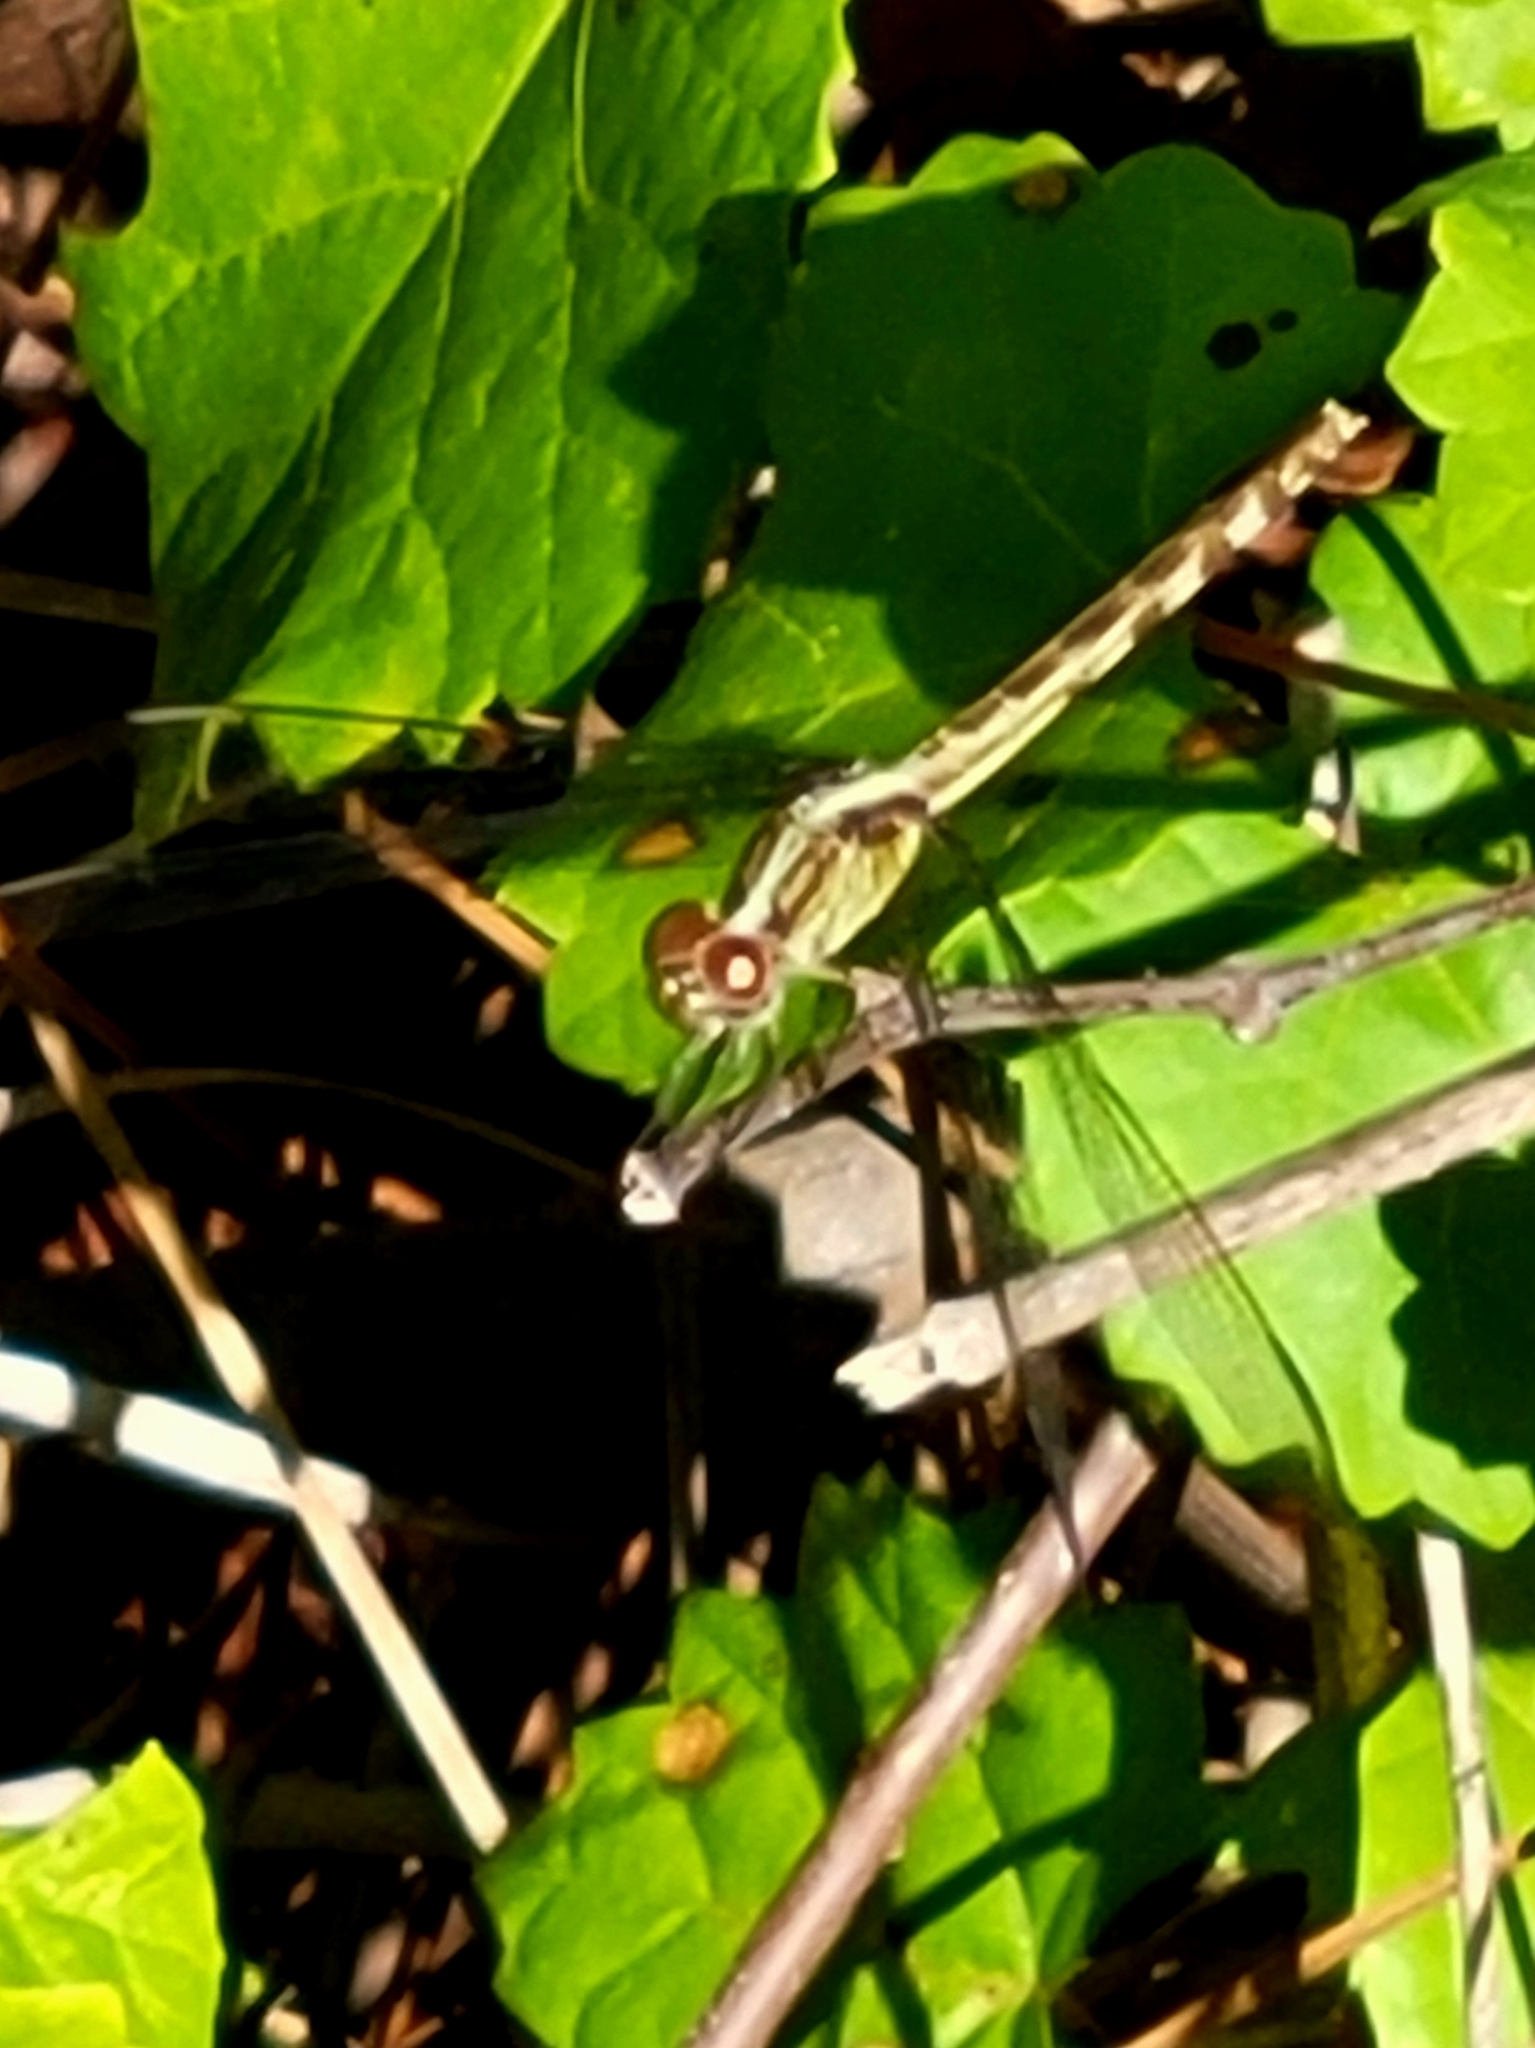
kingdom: Animalia
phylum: Arthropoda
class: Insecta
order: Odonata
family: Libellulidae
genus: Erythrodiplax
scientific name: Erythrodiplax umbrata
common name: Band-winged dragonlet
